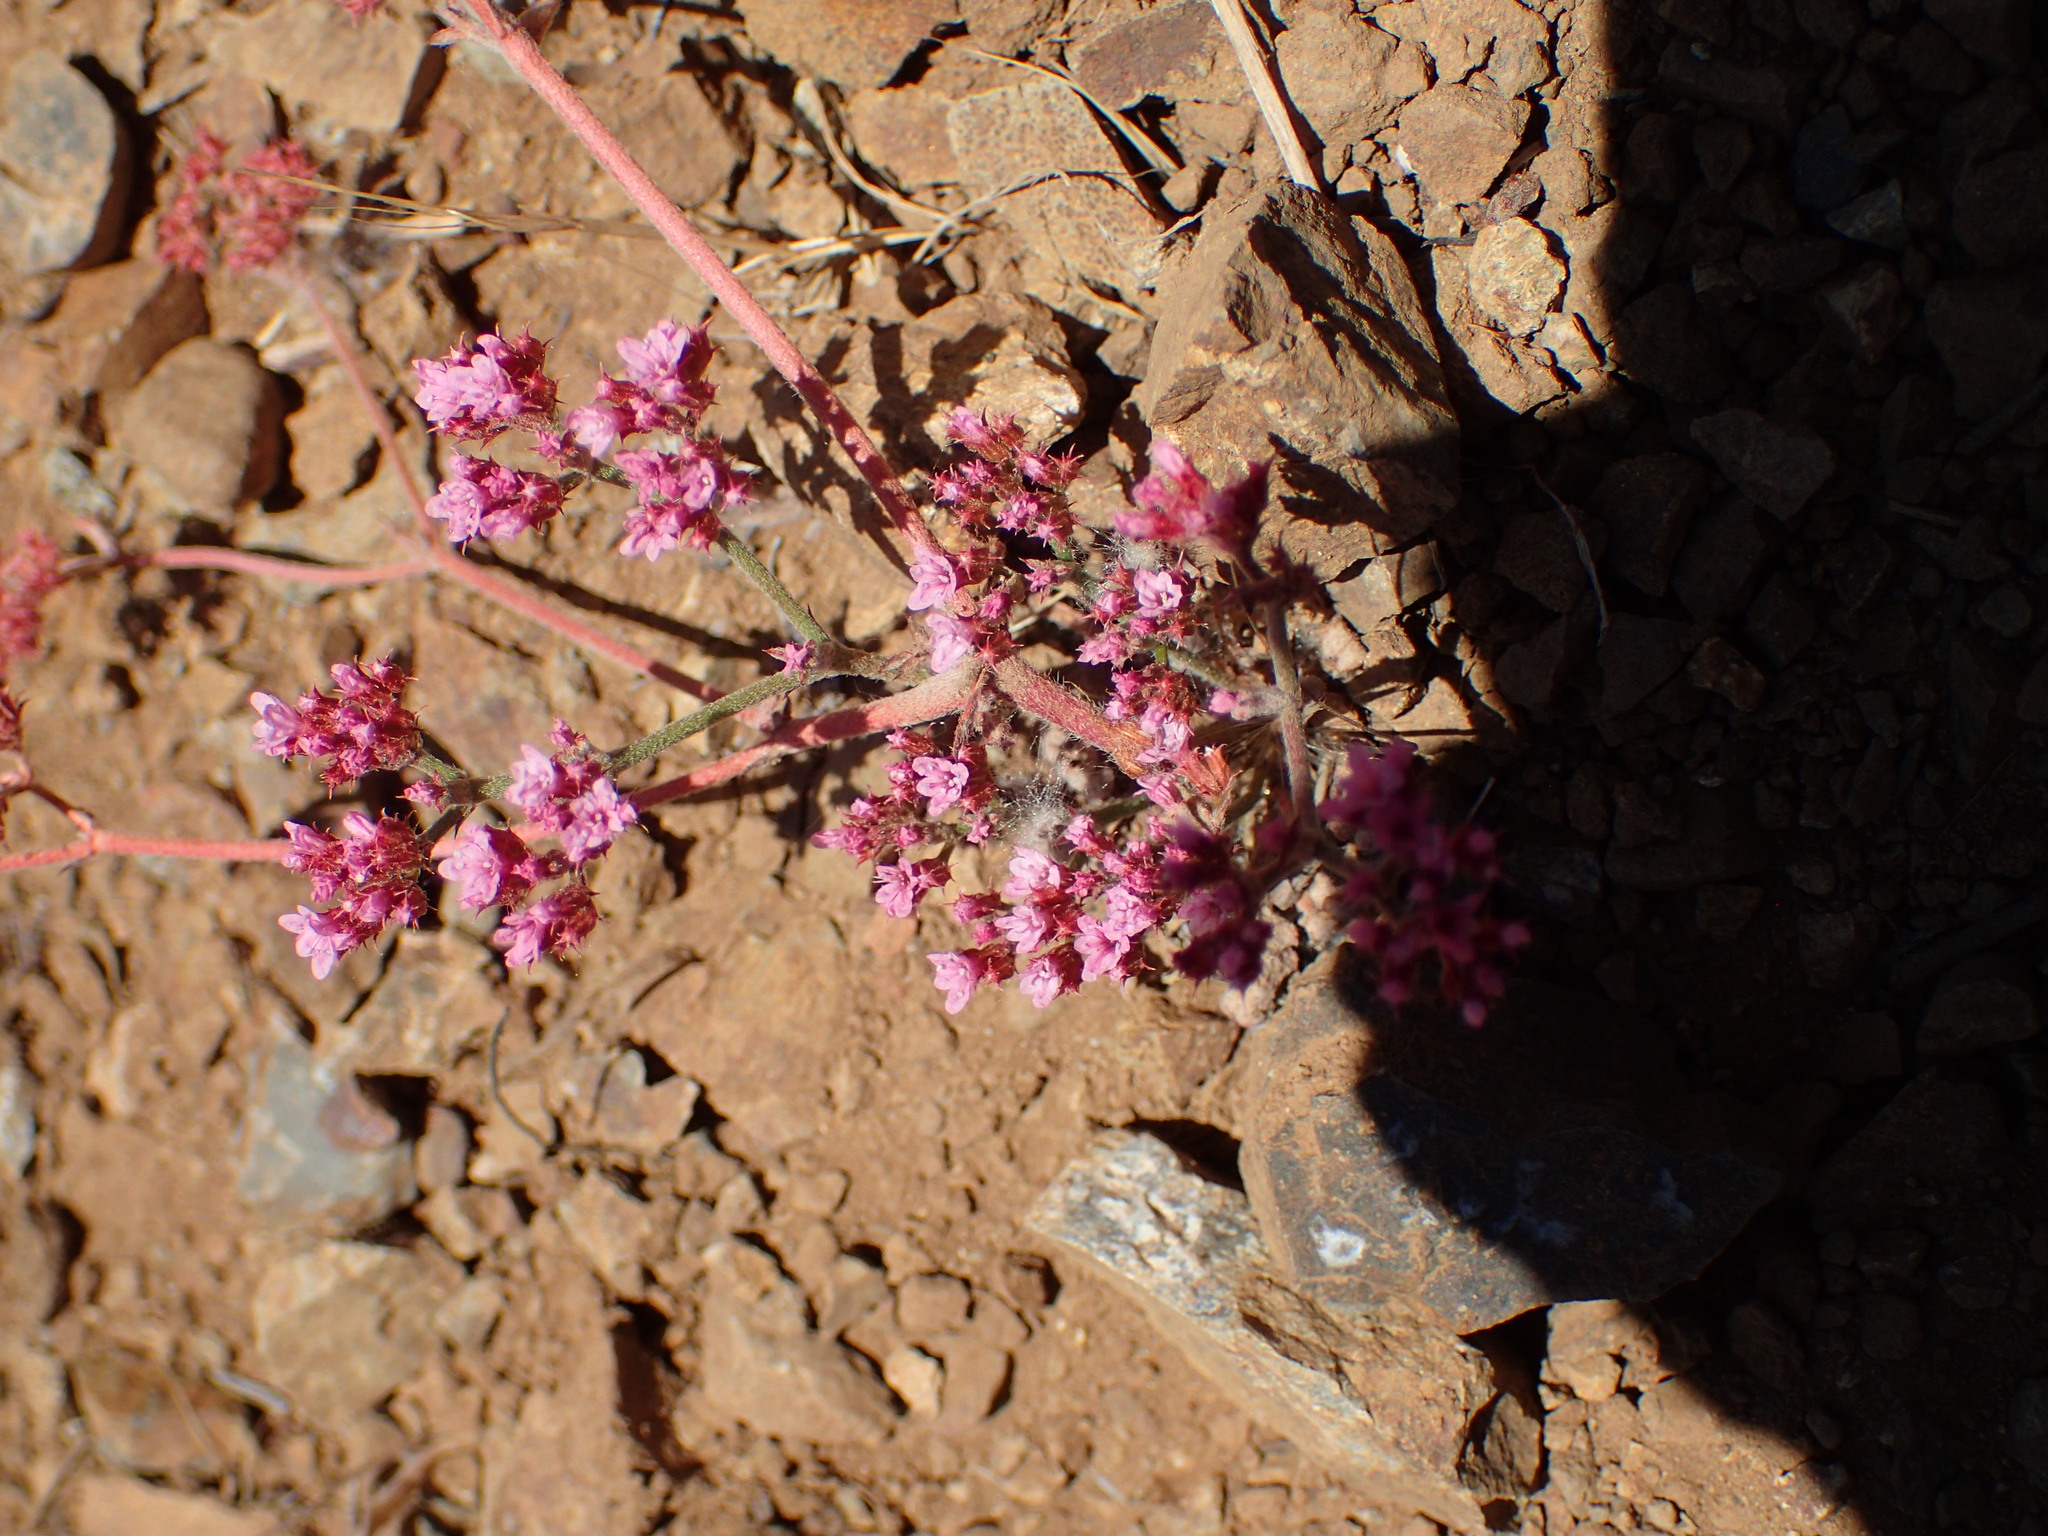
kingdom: Plantae
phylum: Tracheophyta
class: Magnoliopsida
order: Caryophyllales
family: Polygonaceae
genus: Chorizanthe
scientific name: Chorizanthe staticoides
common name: Turkish rugging
